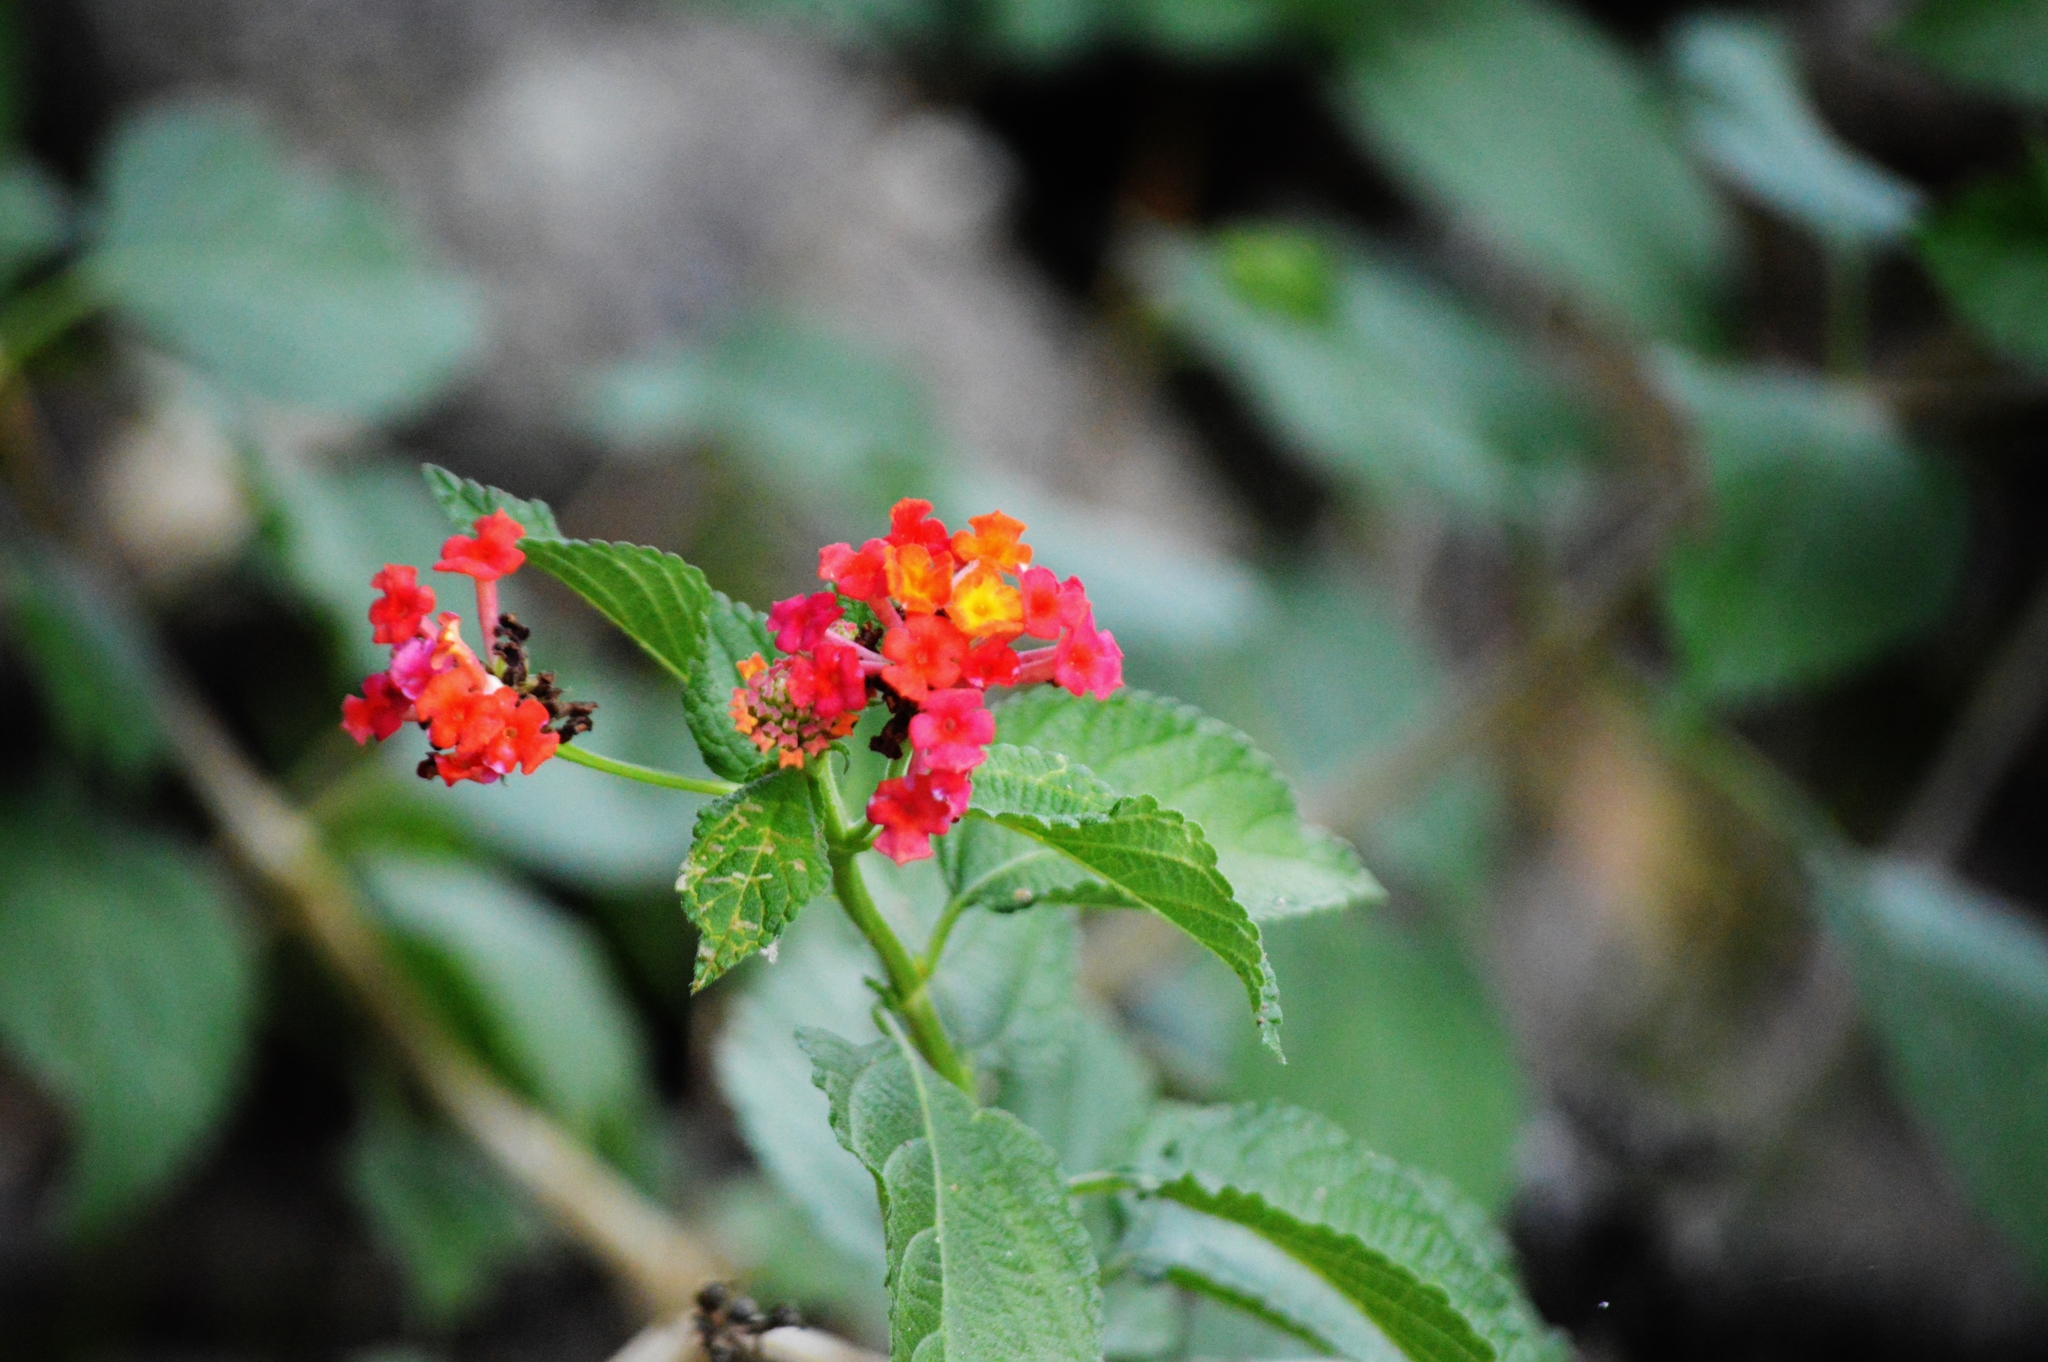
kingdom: Plantae
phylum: Tracheophyta
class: Magnoliopsida
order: Lamiales
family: Verbenaceae
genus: Lantana
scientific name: Lantana camara
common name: Lantana
